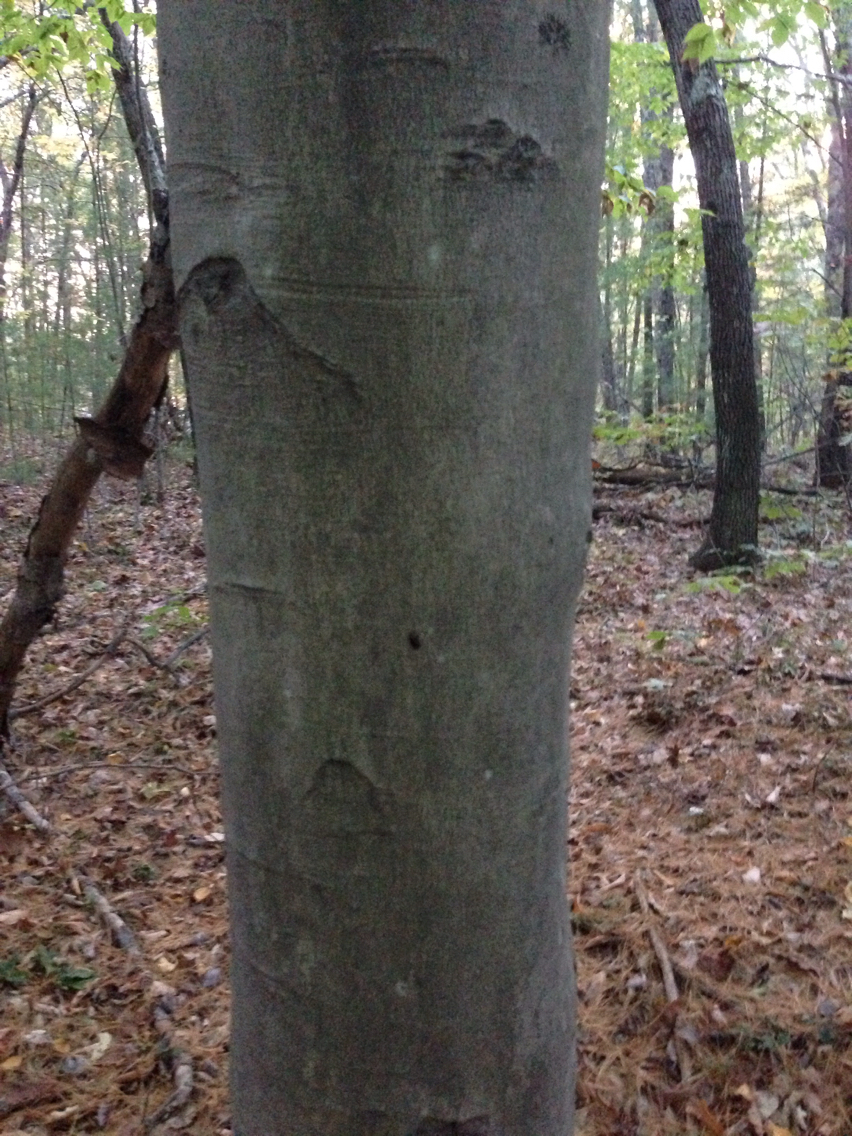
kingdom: Plantae
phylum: Tracheophyta
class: Magnoliopsida
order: Fagales
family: Fagaceae
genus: Fagus
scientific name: Fagus grandifolia
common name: American beech
